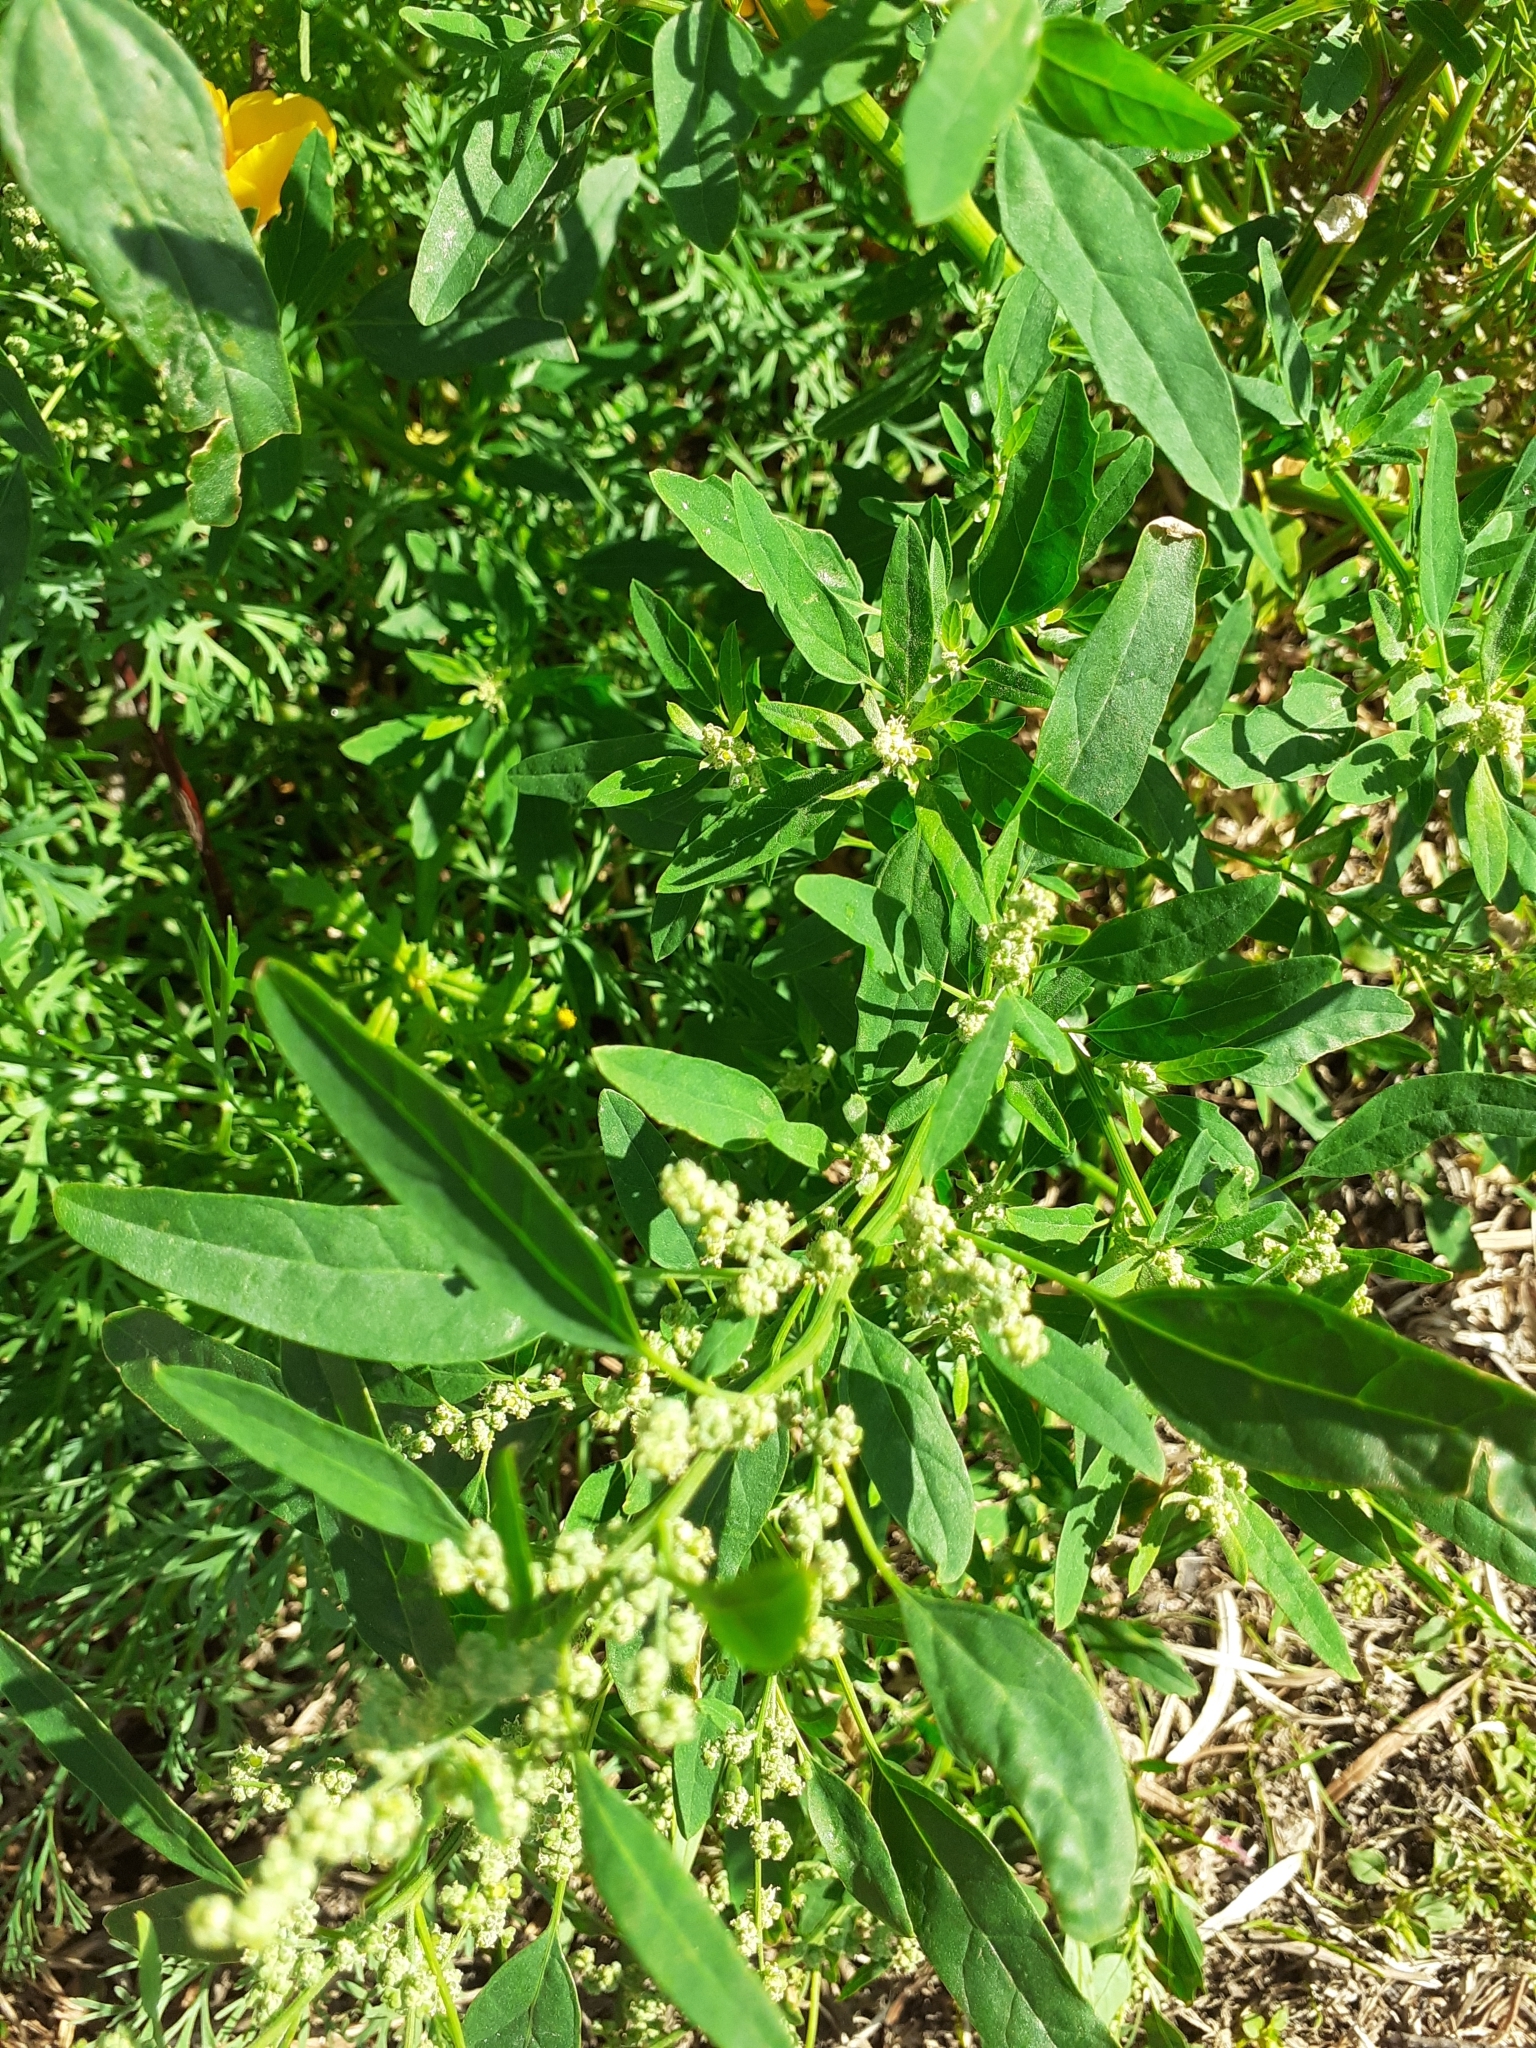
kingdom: Plantae
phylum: Tracheophyta
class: Magnoliopsida
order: Caryophyllales
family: Amaranthaceae
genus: Chenopodium
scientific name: Chenopodium album
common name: Fat-hen
